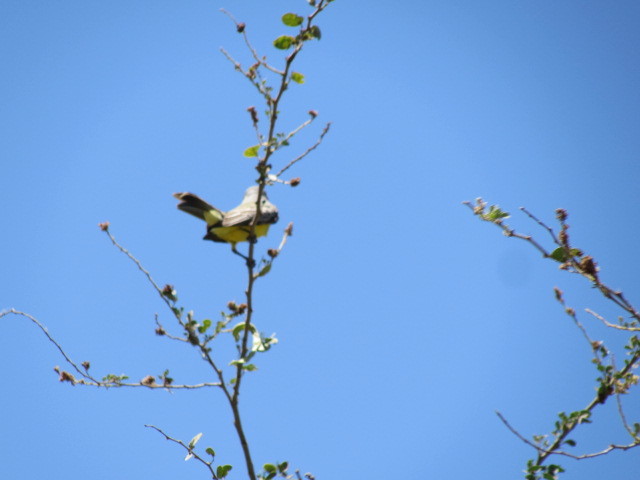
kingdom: Animalia
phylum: Chordata
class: Aves
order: Passeriformes
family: Tyrannidae
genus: Tyrannus
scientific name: Tyrannus melancholicus
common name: Tropical kingbird
